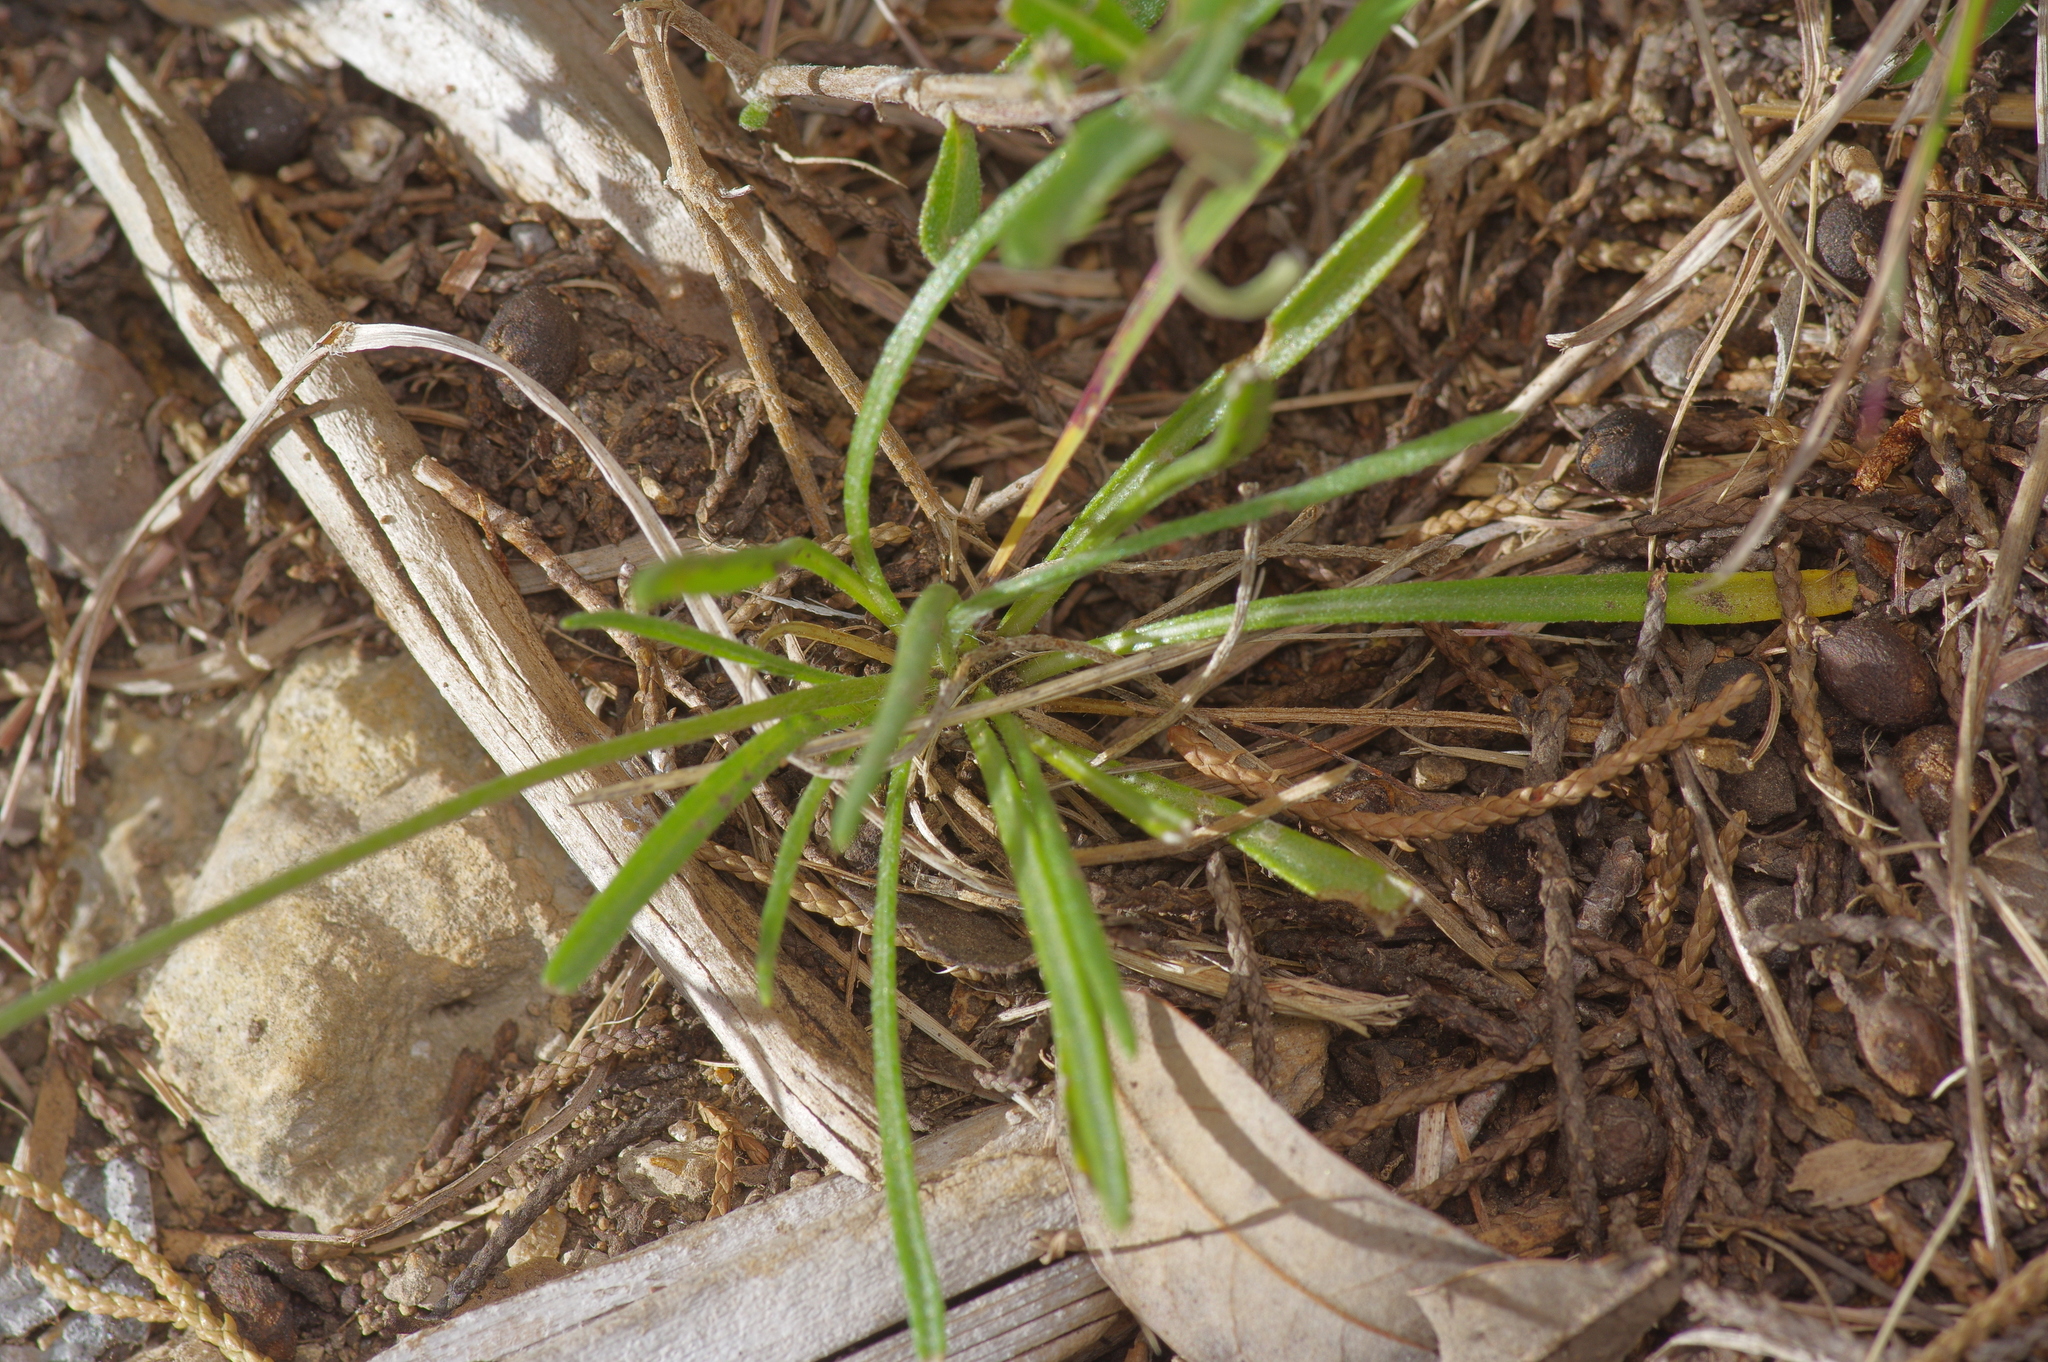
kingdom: Plantae
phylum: Tracheophyta
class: Magnoliopsida
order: Asterales
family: Asteraceae
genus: Tetraneuris
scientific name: Tetraneuris scaposa
